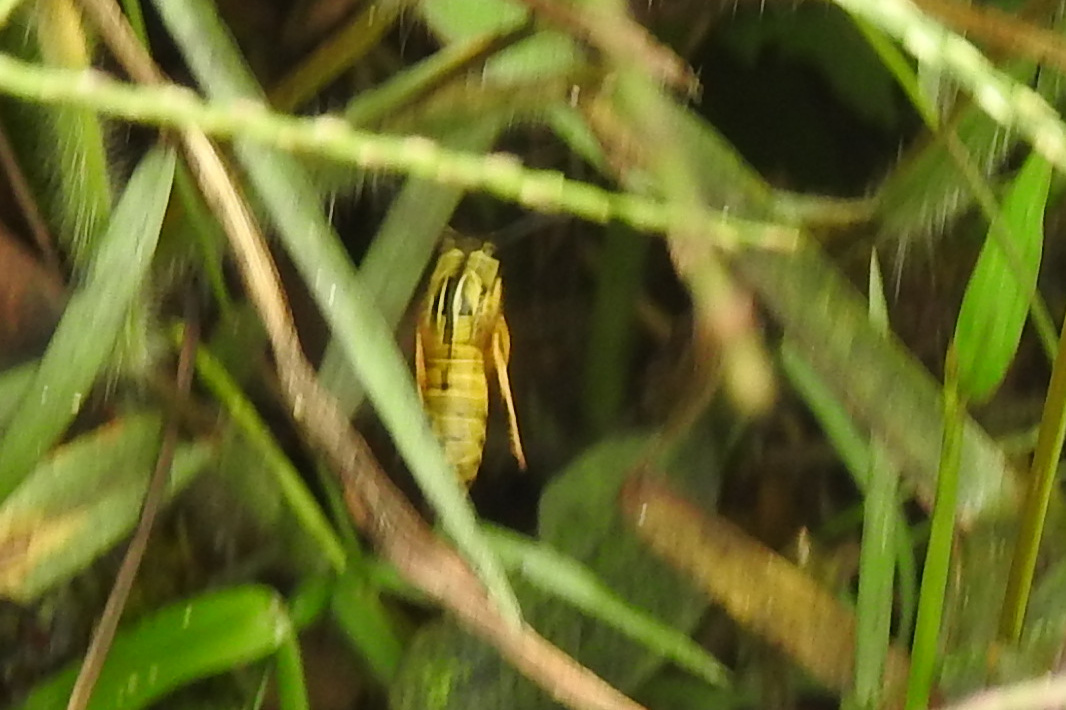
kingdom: Animalia
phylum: Arthropoda
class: Insecta
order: Hymenoptera
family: Vespidae
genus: Vespula
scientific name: Vespula squamosa
